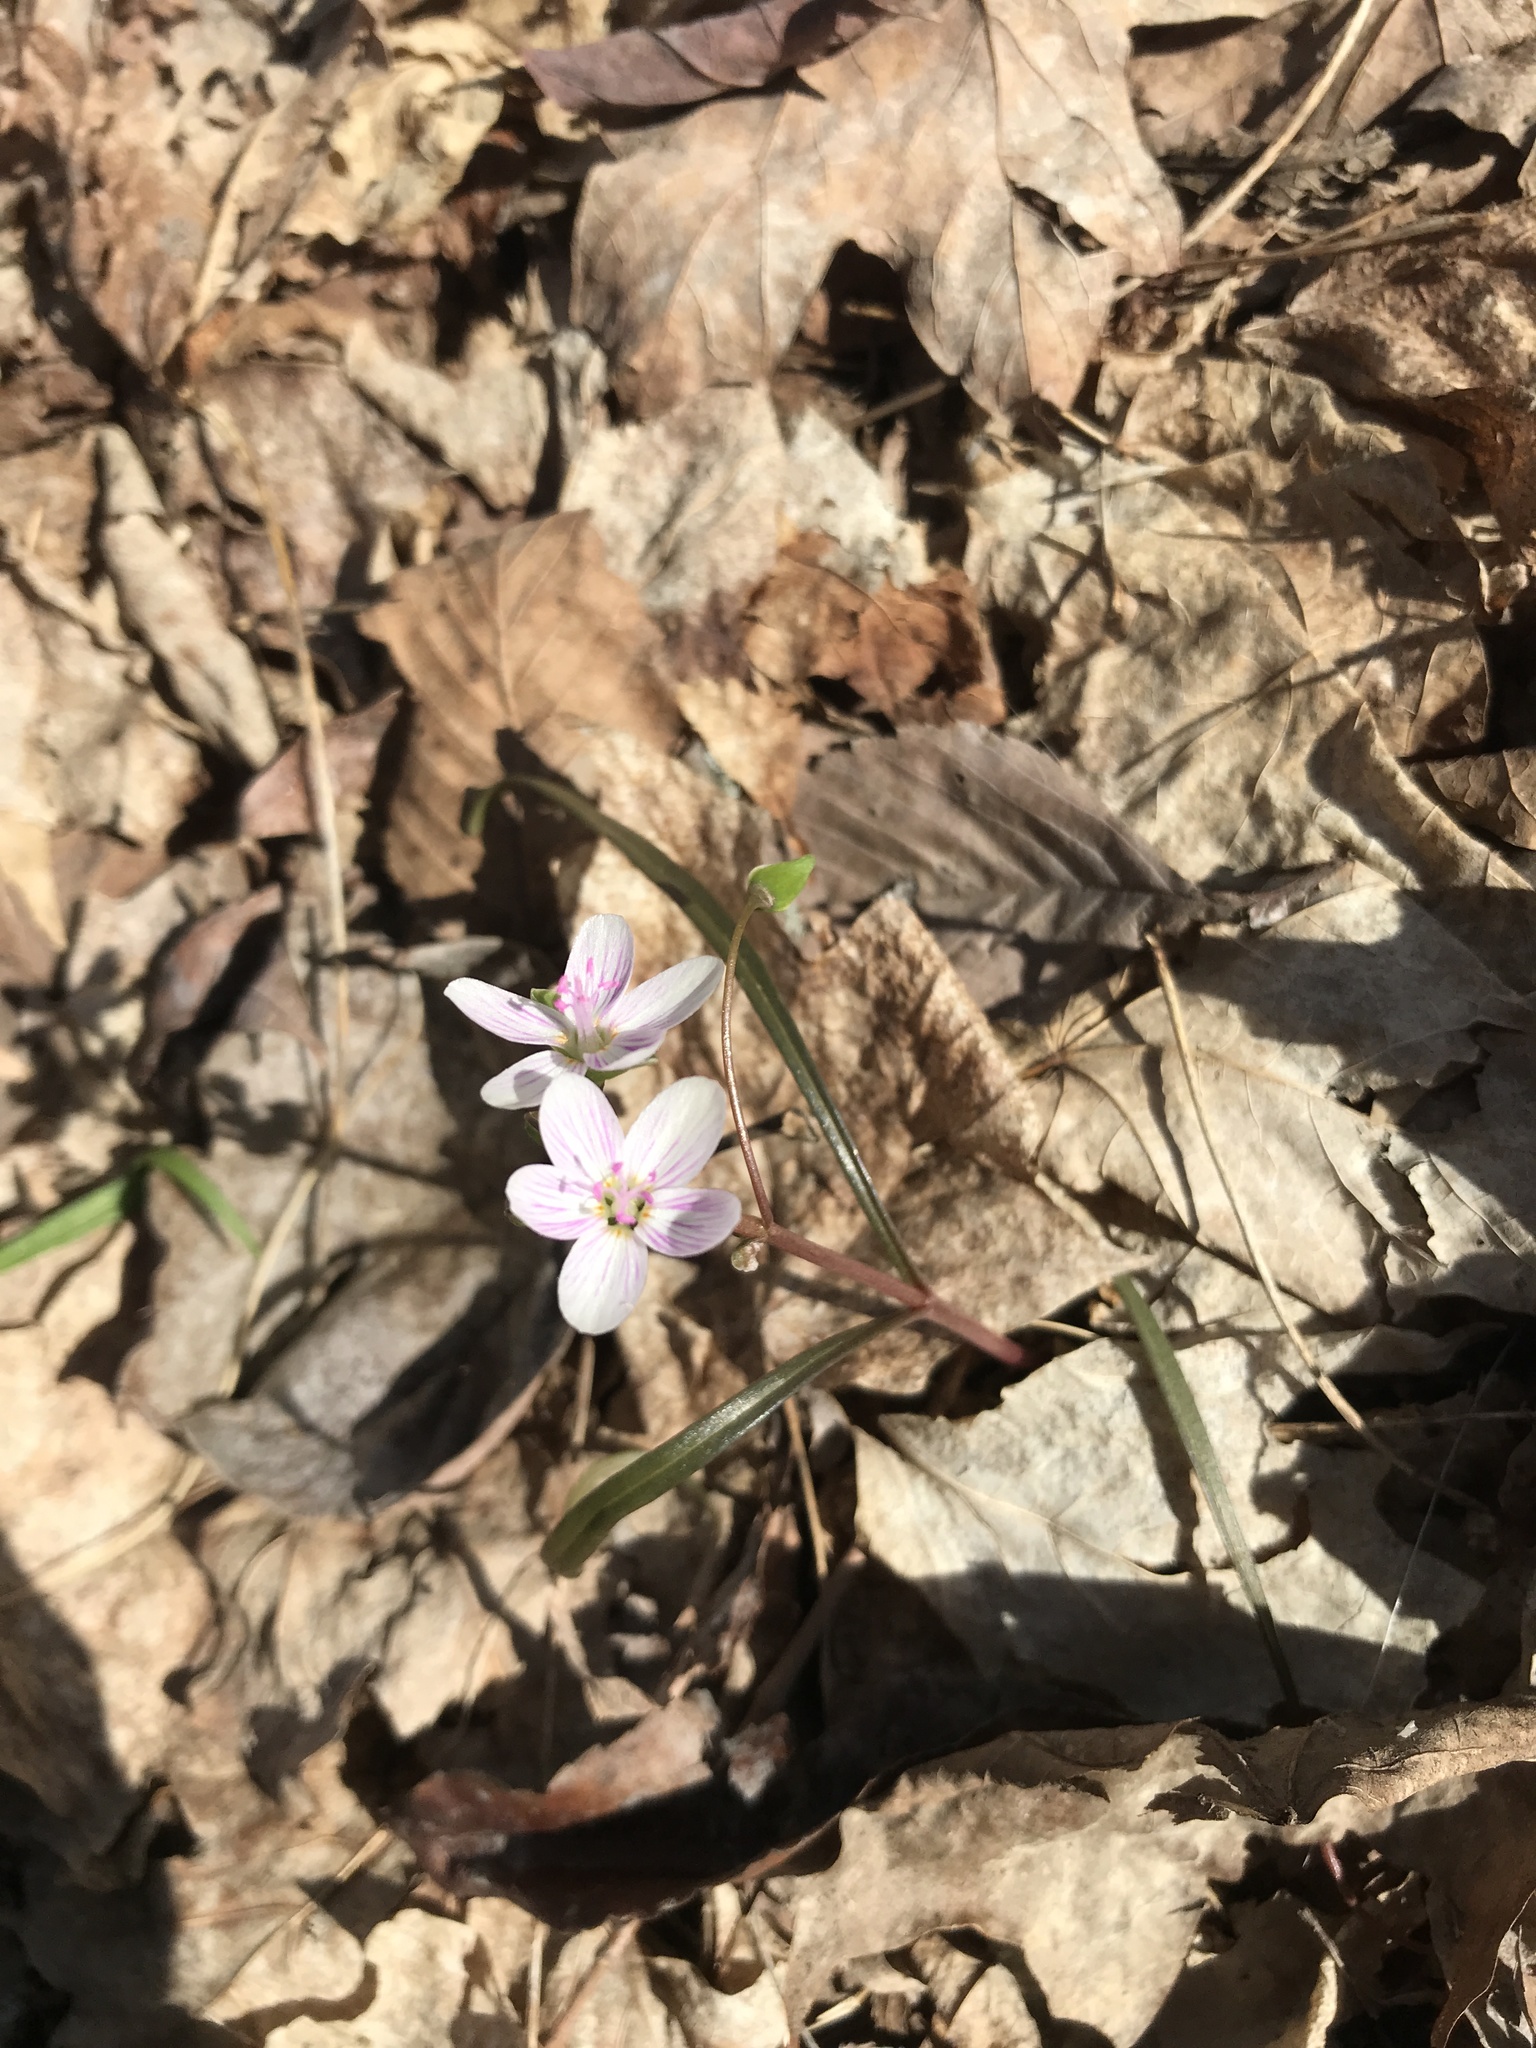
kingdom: Plantae
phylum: Tracheophyta
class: Magnoliopsida
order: Caryophyllales
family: Montiaceae
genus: Claytonia
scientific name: Claytonia virginica
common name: Virginia springbeauty
